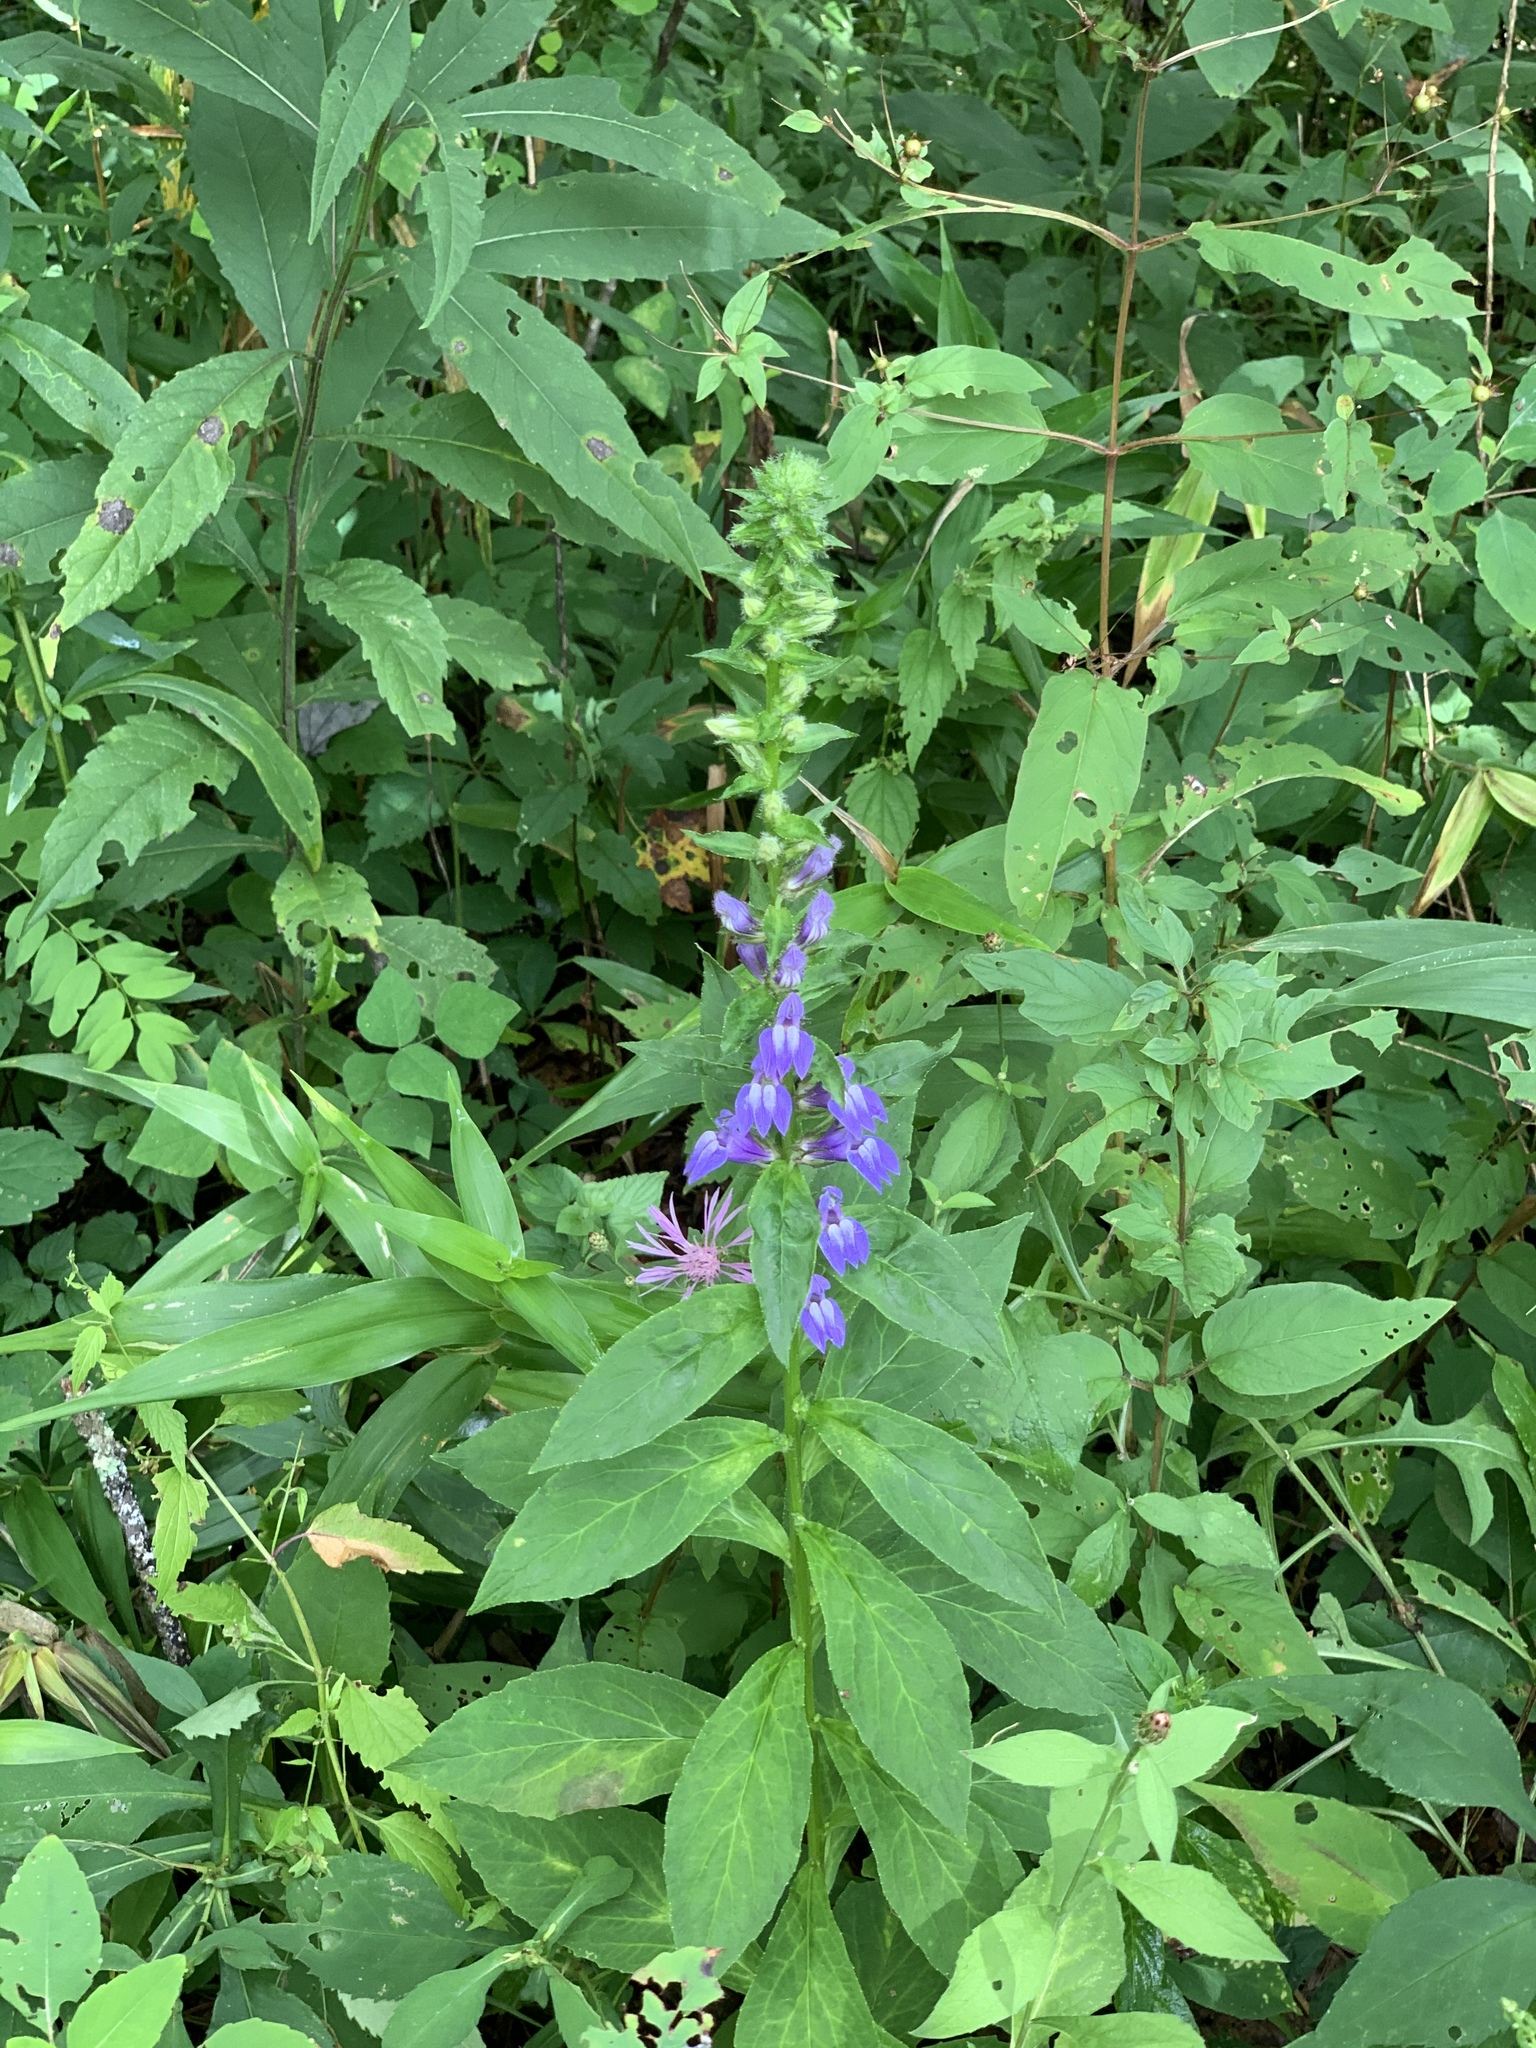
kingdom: Plantae
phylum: Tracheophyta
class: Magnoliopsida
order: Asterales
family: Campanulaceae
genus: Lobelia
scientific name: Lobelia siphilitica
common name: Great lobelia
